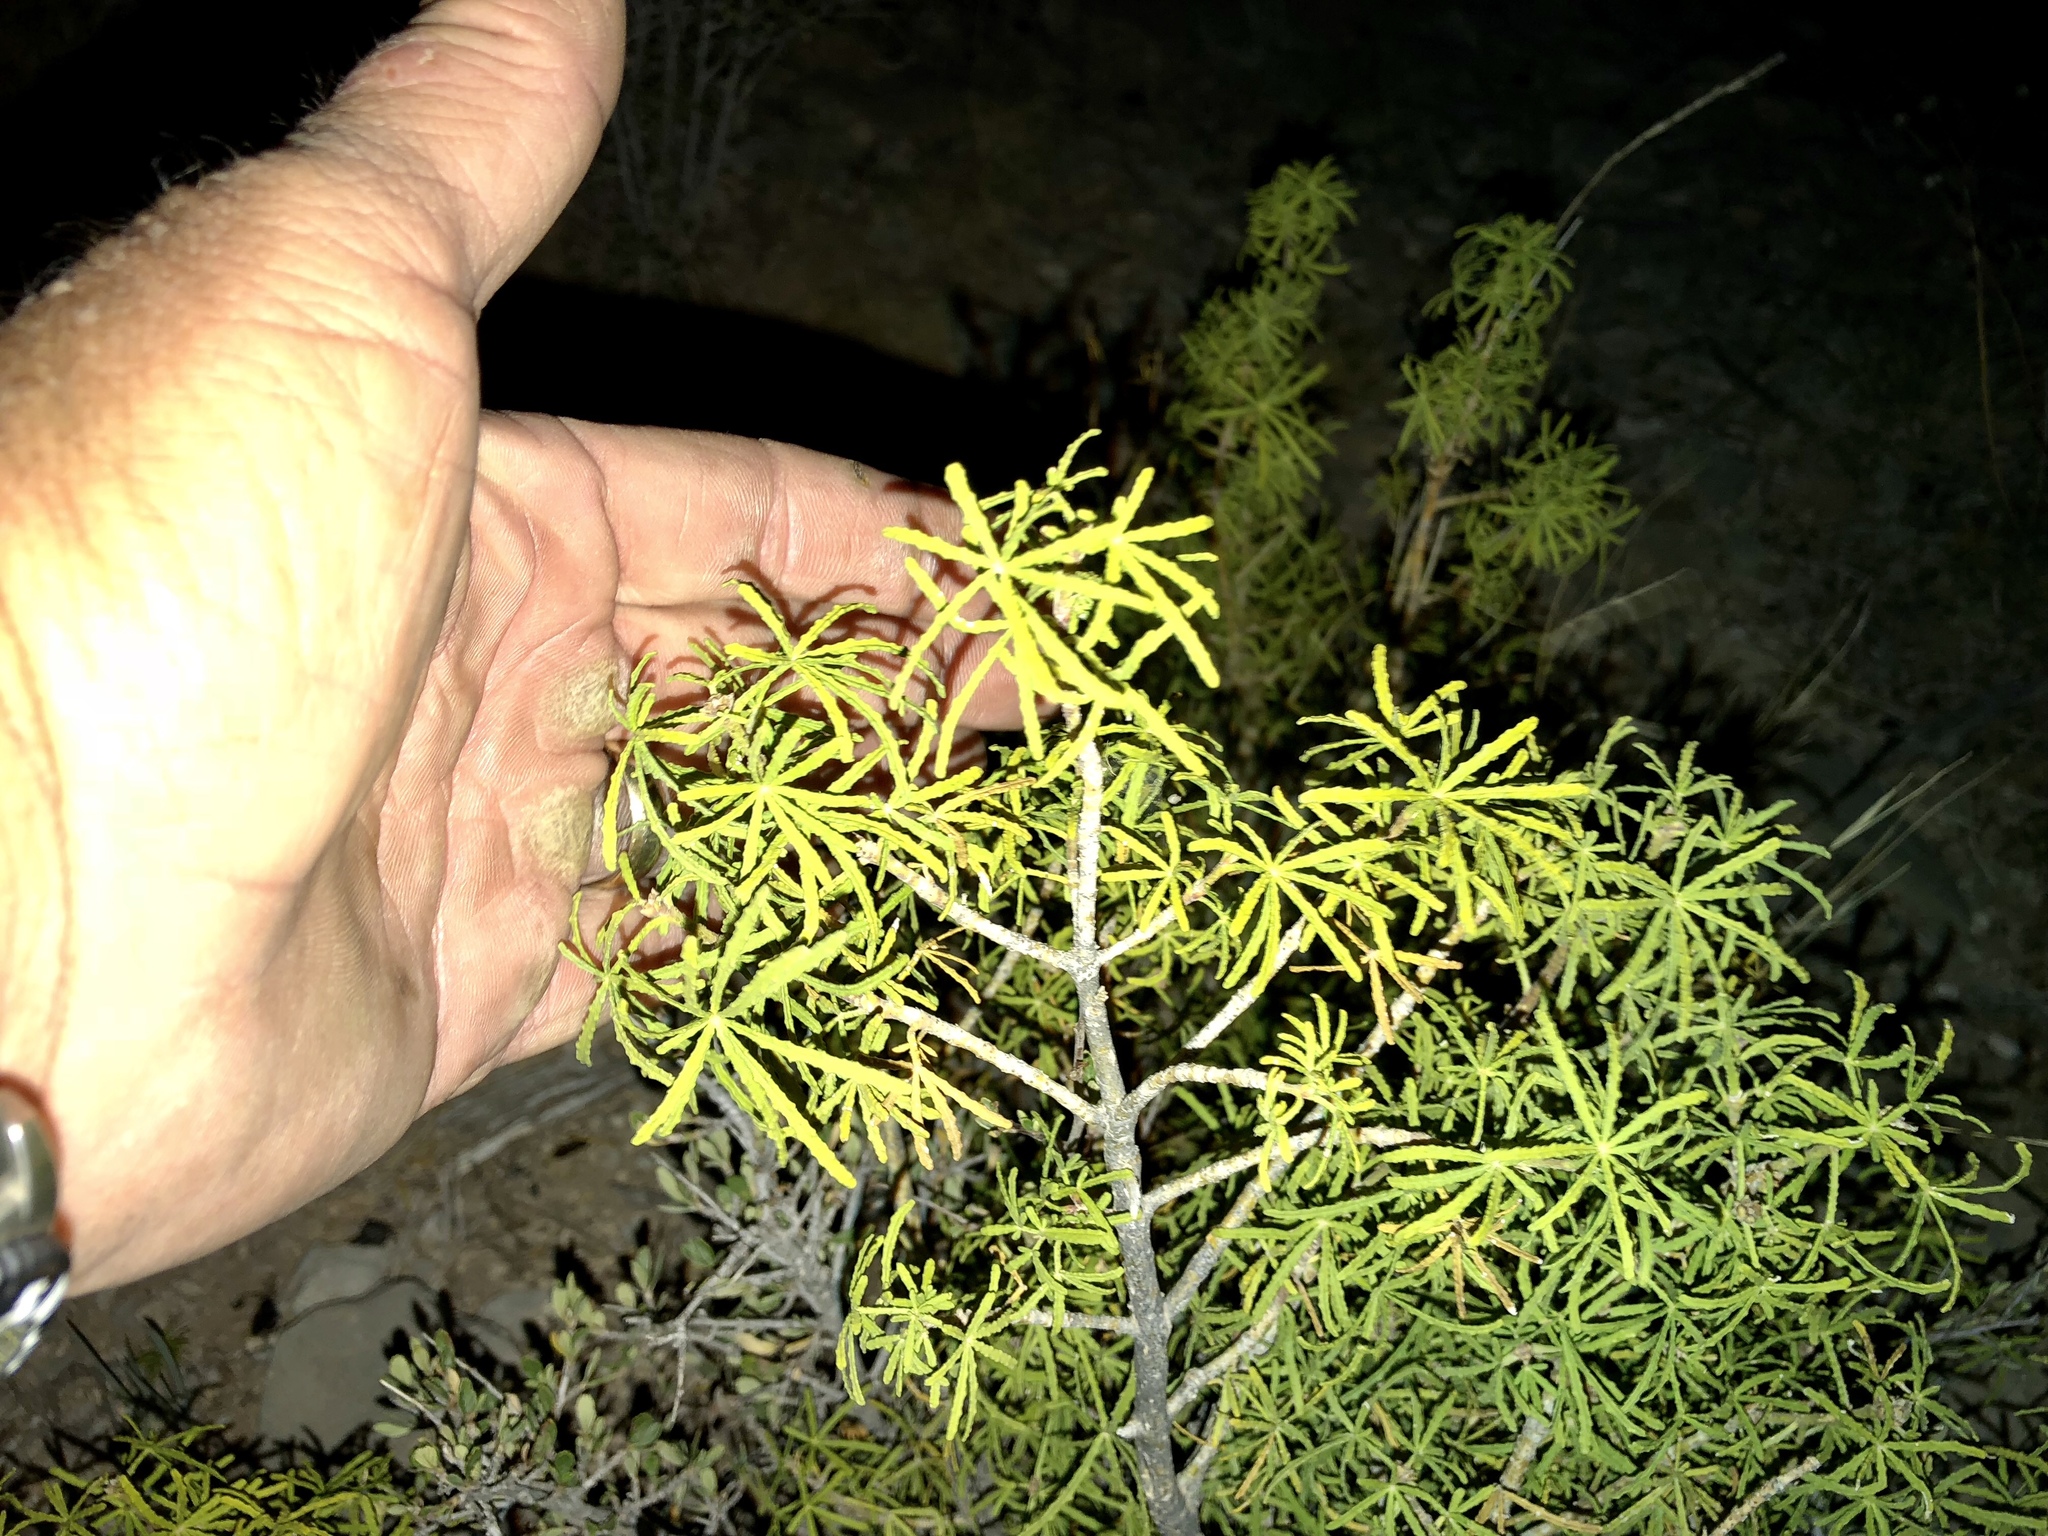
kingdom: Plantae
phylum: Tracheophyta
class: Magnoliopsida
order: Sapindales
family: Rutaceae
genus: Choisya
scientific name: Choisya dumosa
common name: Mexican-orange
